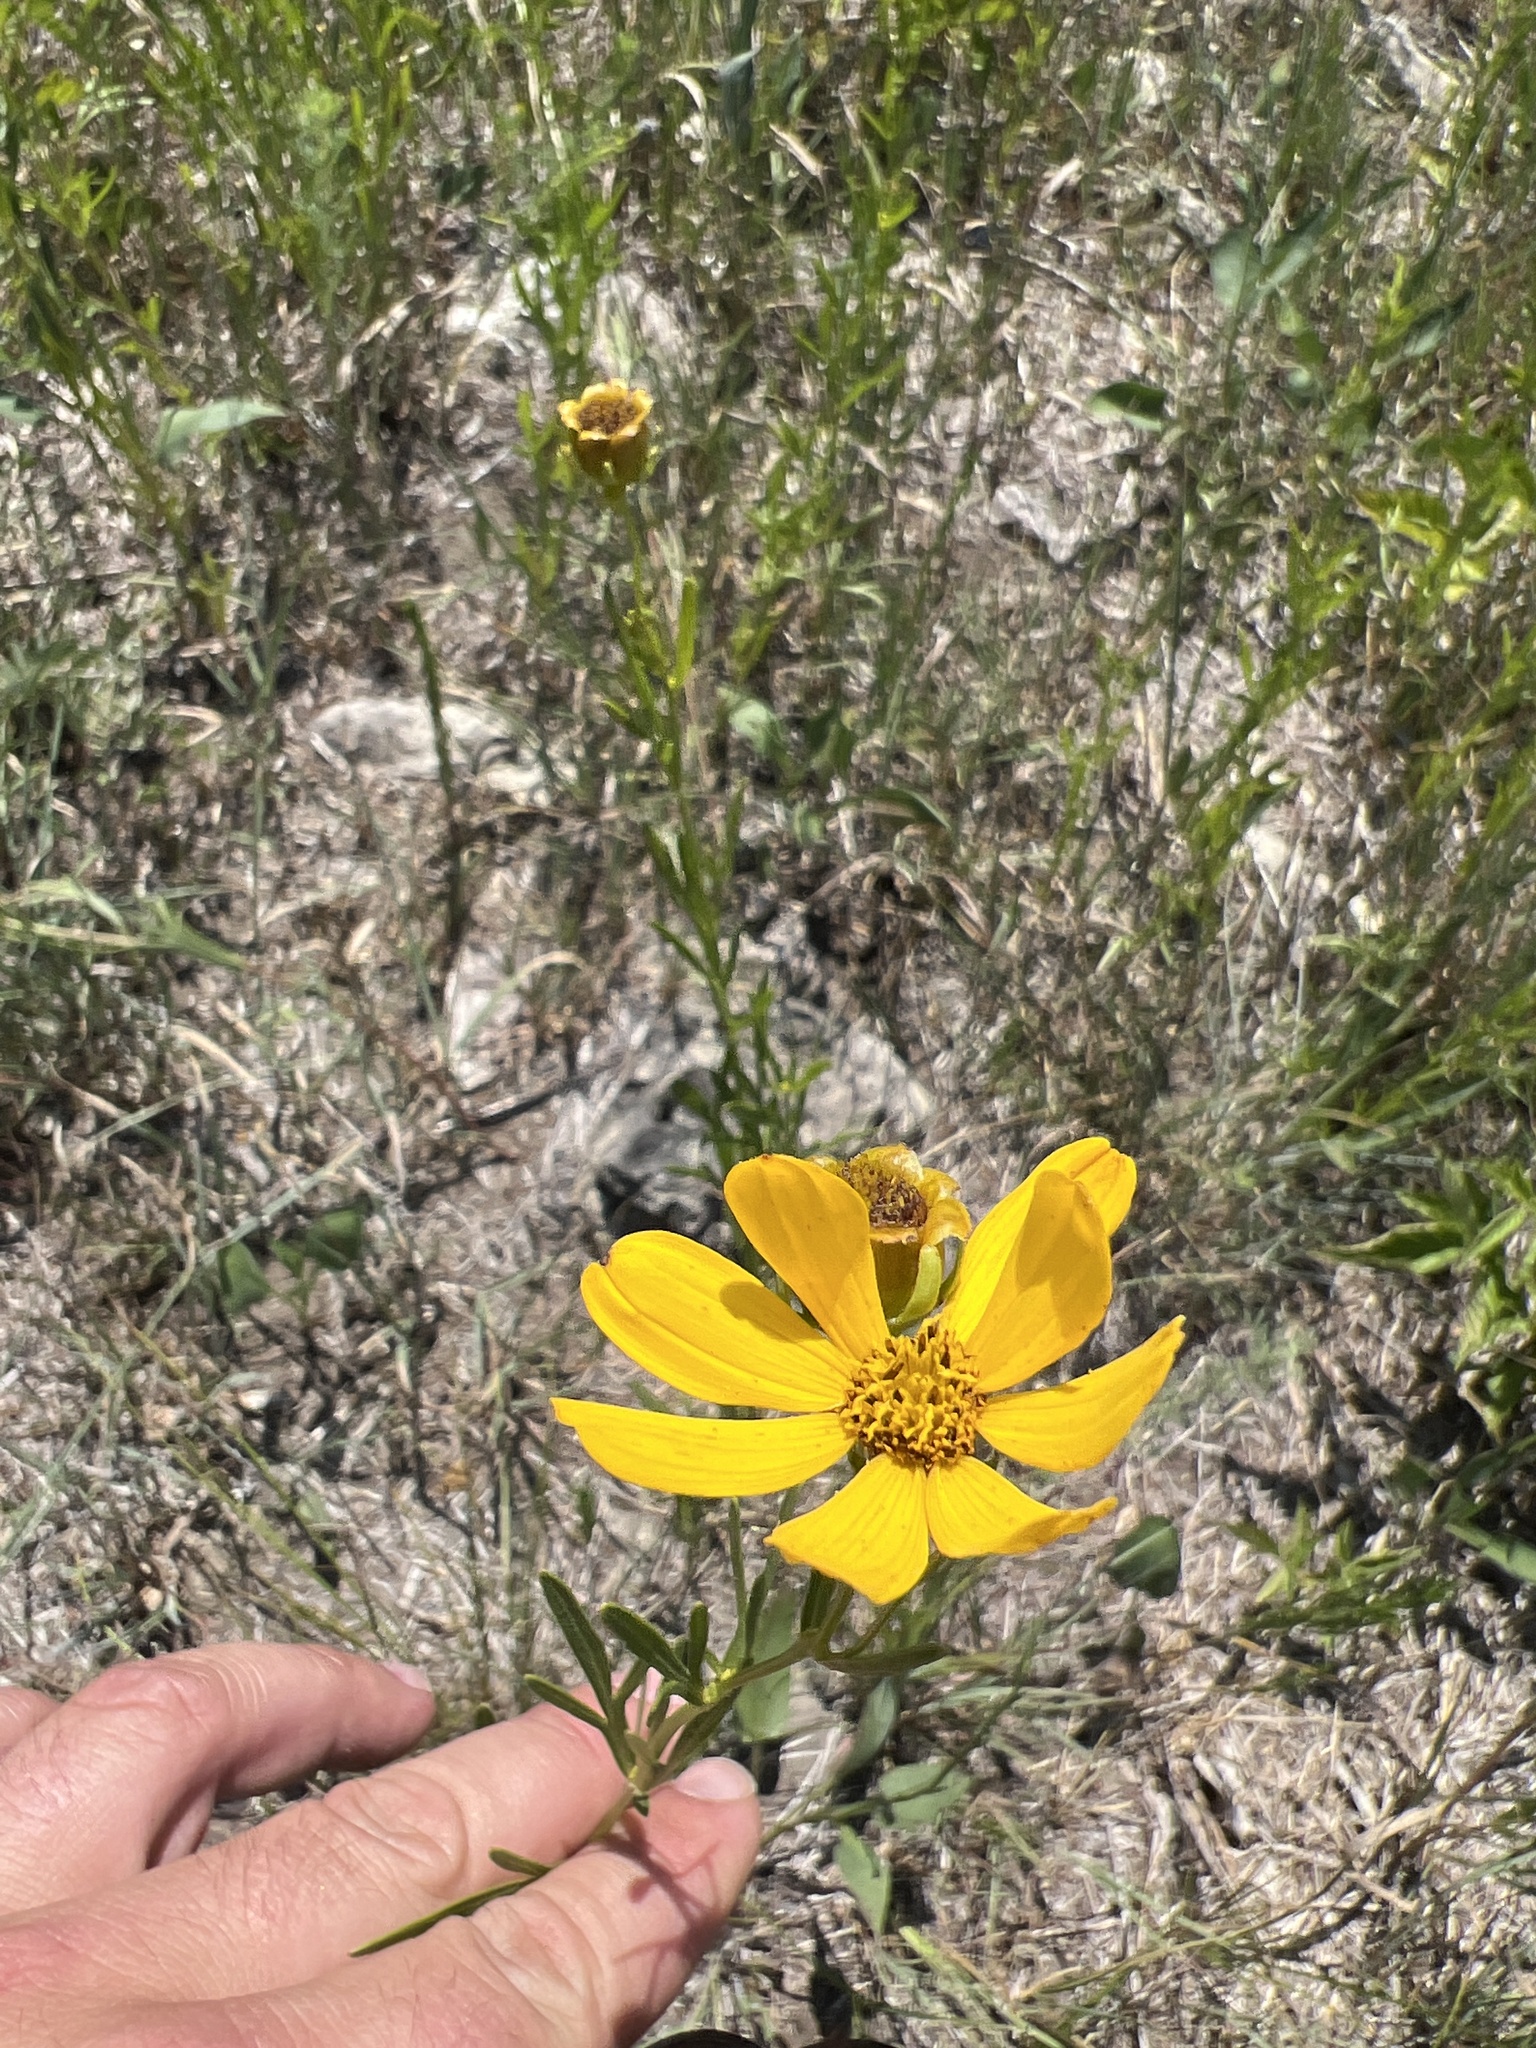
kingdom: Plantae
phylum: Tracheophyta
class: Magnoliopsida
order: Asterales
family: Asteraceae
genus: Coreopsis
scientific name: Coreopsis palmata
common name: Prairie coreopsis
